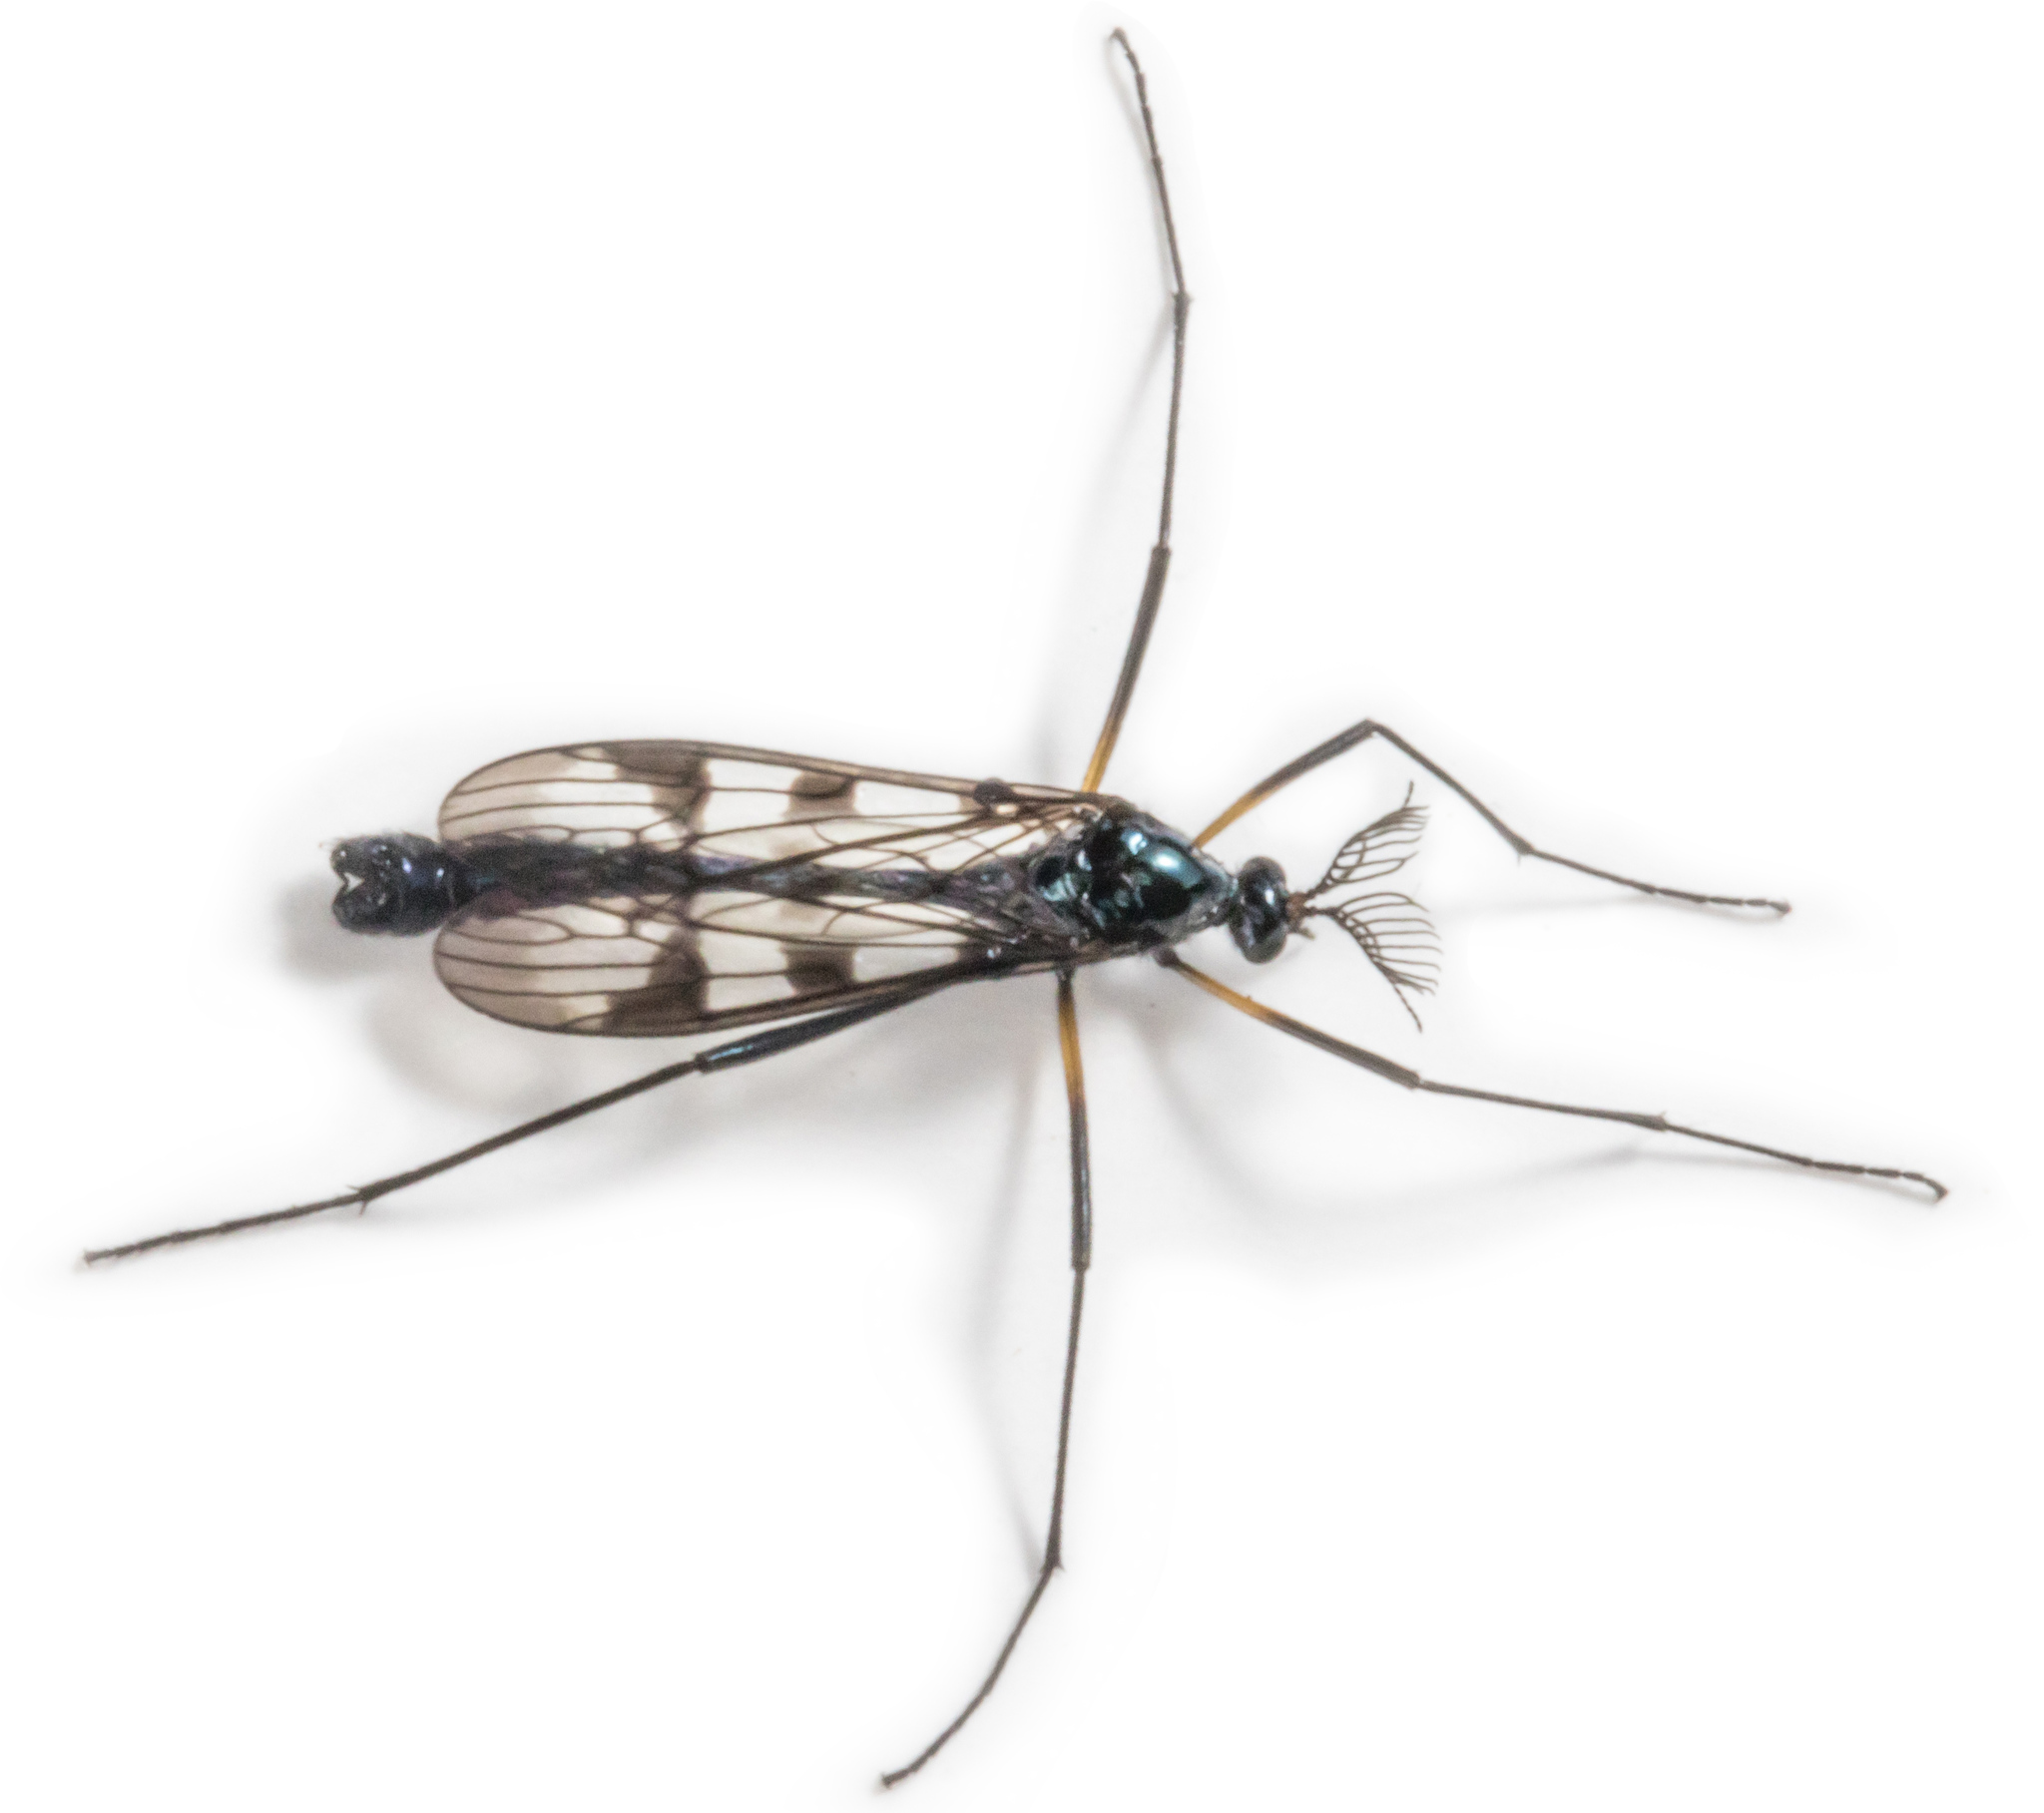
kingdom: Animalia
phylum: Arthropoda
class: Insecta
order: Diptera
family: Limoniidae
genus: Gynoplistia
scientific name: Gynoplistia orophila
